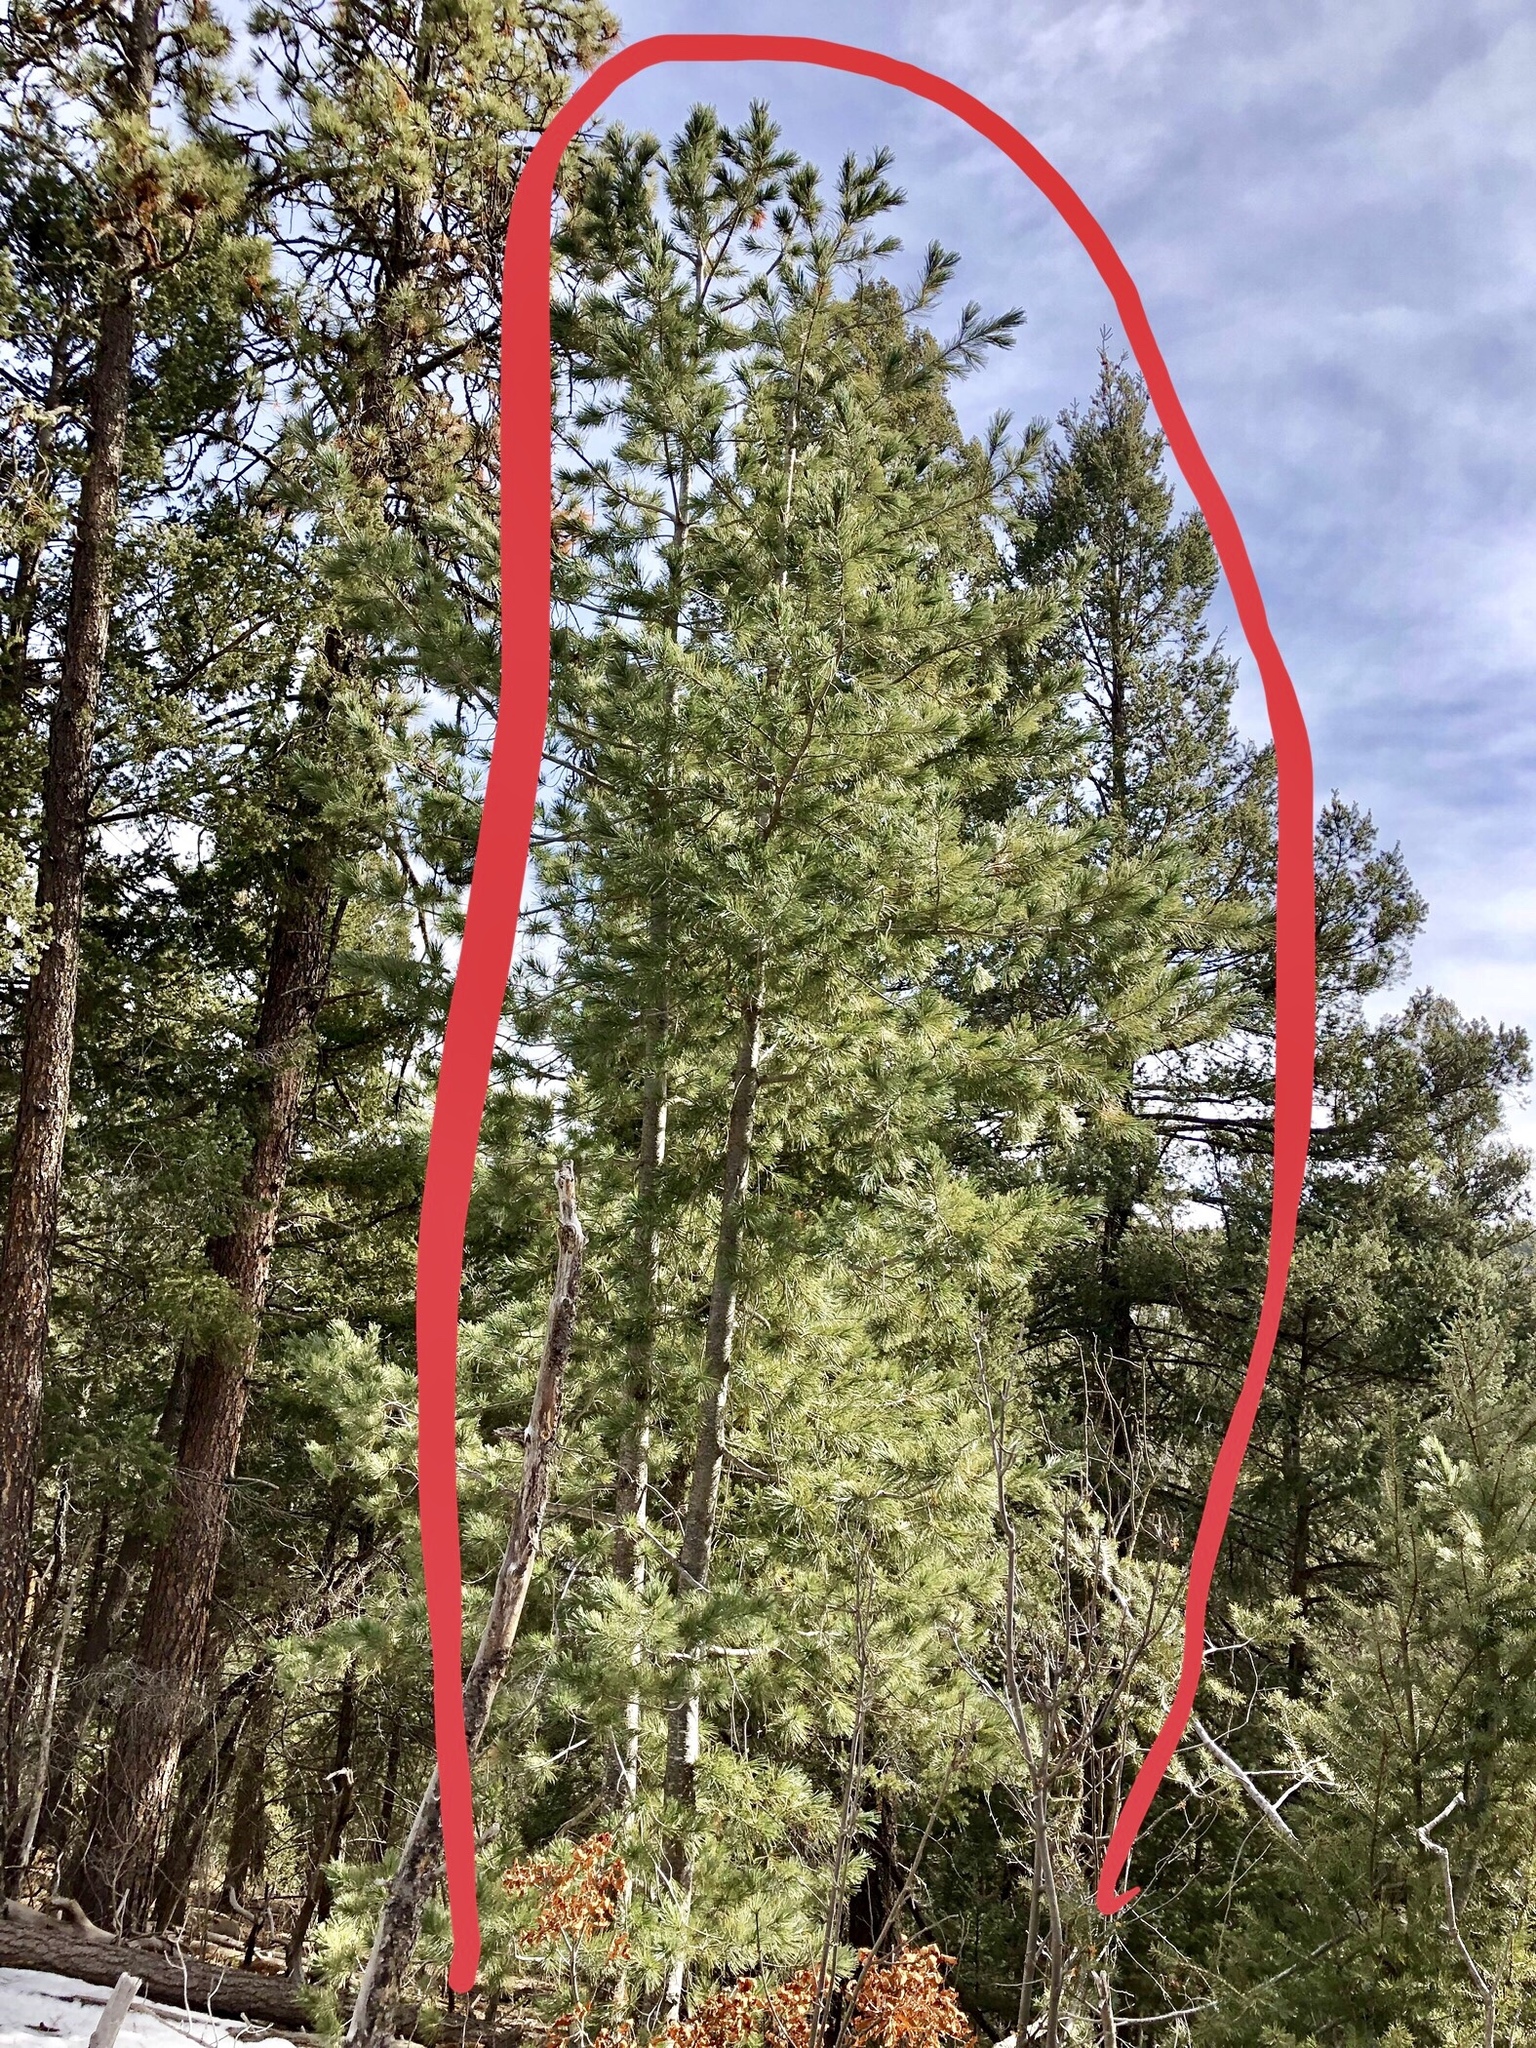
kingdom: Plantae
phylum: Tracheophyta
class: Pinopsida
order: Pinales
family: Pinaceae
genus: Pinus
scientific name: Pinus strobiformis
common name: Southwestern white pine
